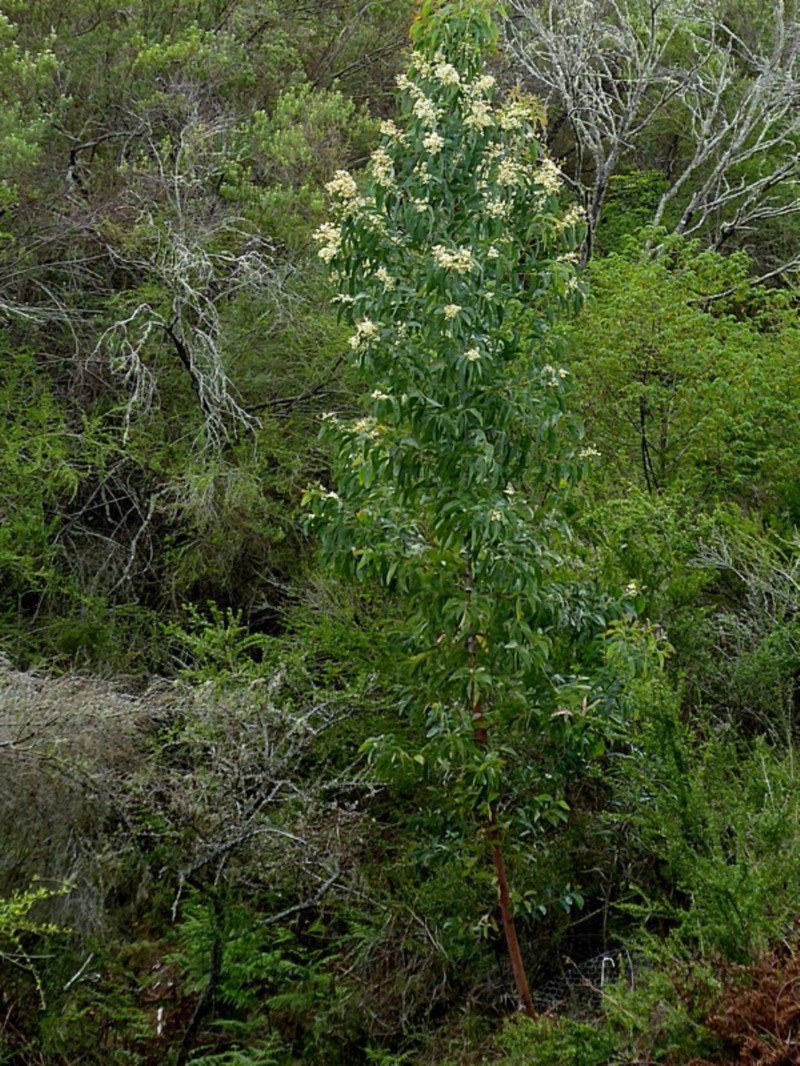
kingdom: Plantae
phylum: Tracheophyta
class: Magnoliopsida
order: Fabales
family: Fabaceae
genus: Acacia
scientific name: Acacia falciformis
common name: Tanning wattle
